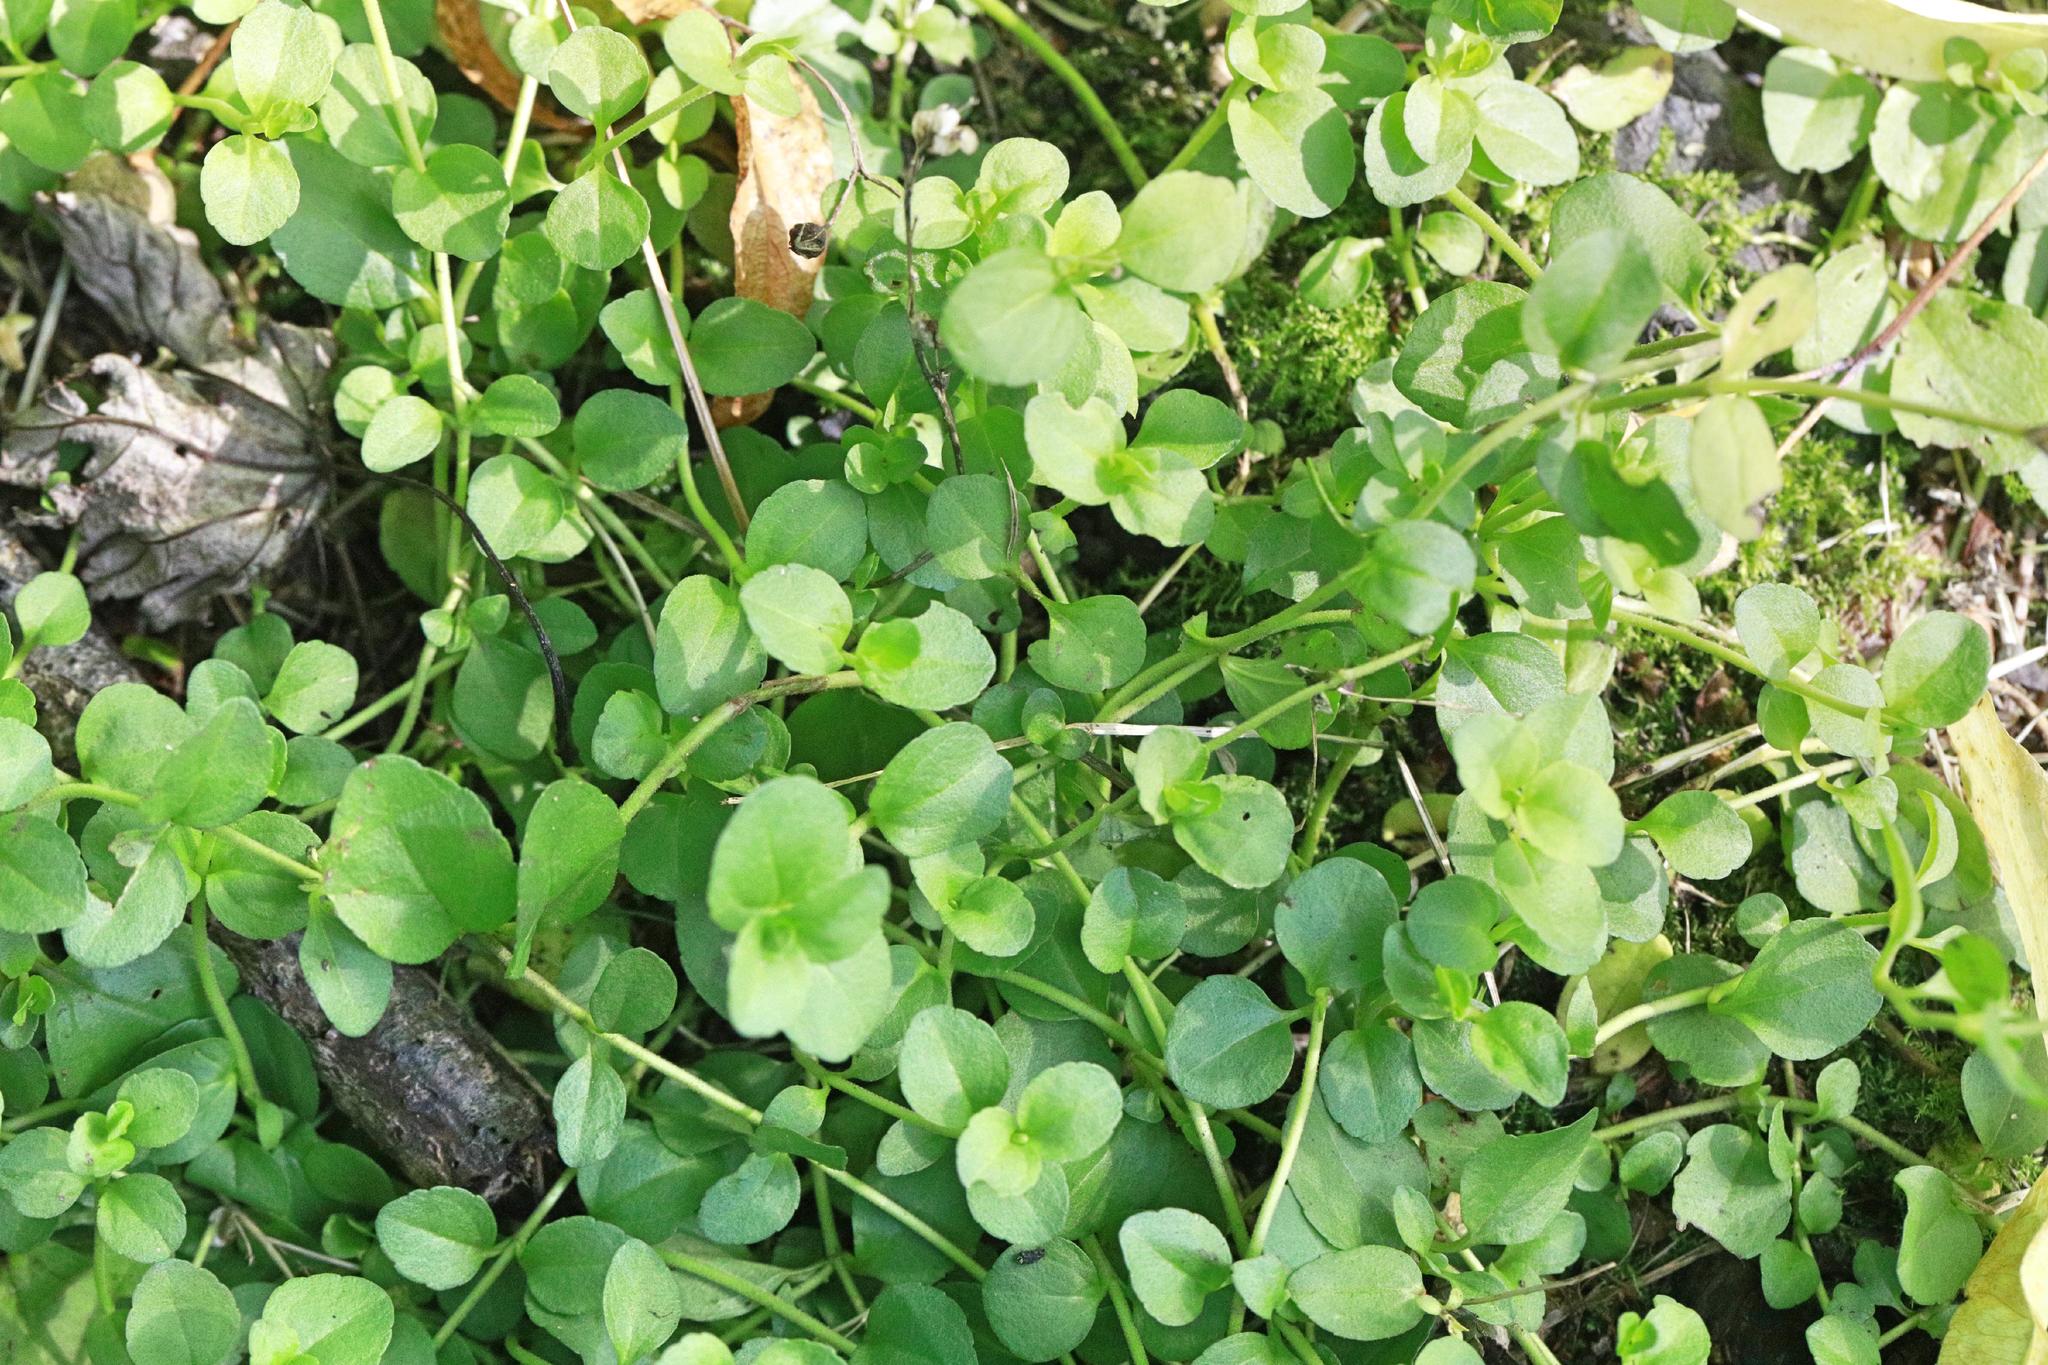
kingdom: Plantae
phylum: Tracheophyta
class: Magnoliopsida
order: Ericales
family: Primulaceae
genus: Lysimachia
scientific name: Lysimachia nummularia
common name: Moneywort
